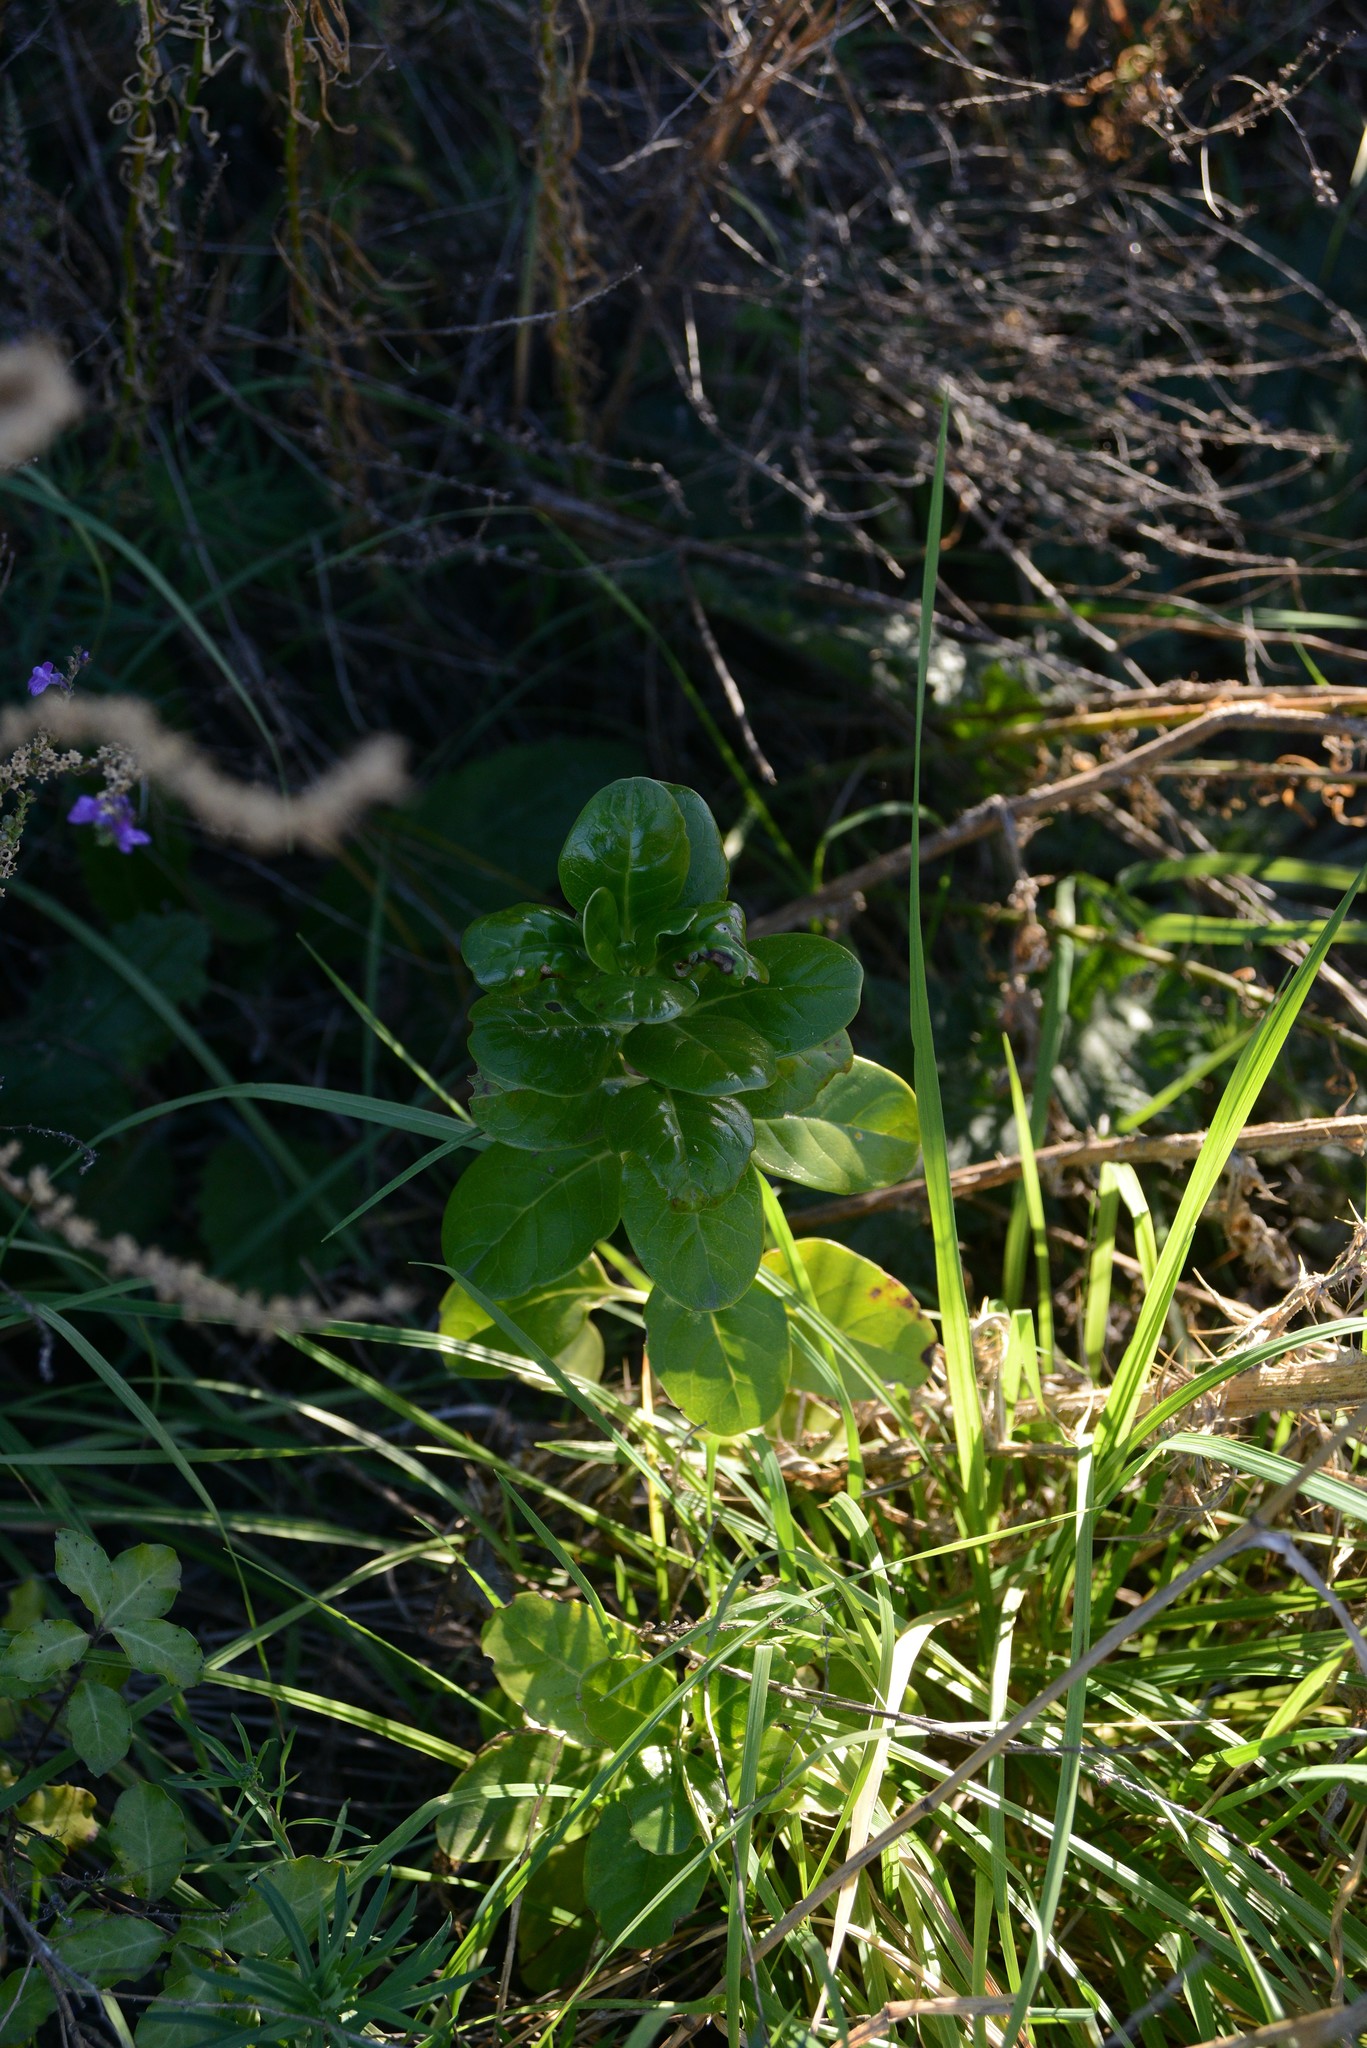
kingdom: Plantae
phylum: Tracheophyta
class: Magnoliopsida
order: Gentianales
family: Rubiaceae
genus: Coprosma
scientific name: Coprosma repens
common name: Tree bedstraw
